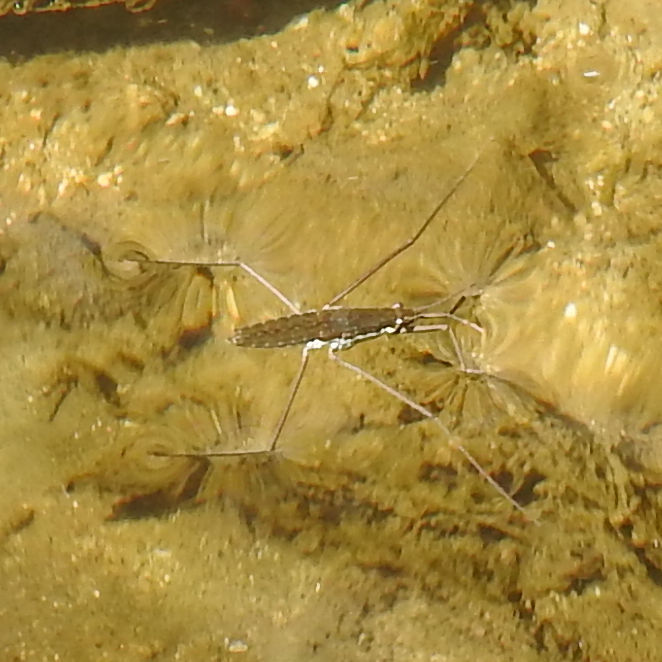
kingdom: Animalia
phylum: Arthropoda
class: Insecta
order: Hemiptera
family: Gerridae
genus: Aquarius
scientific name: Aquarius remigis
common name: Common water strider
